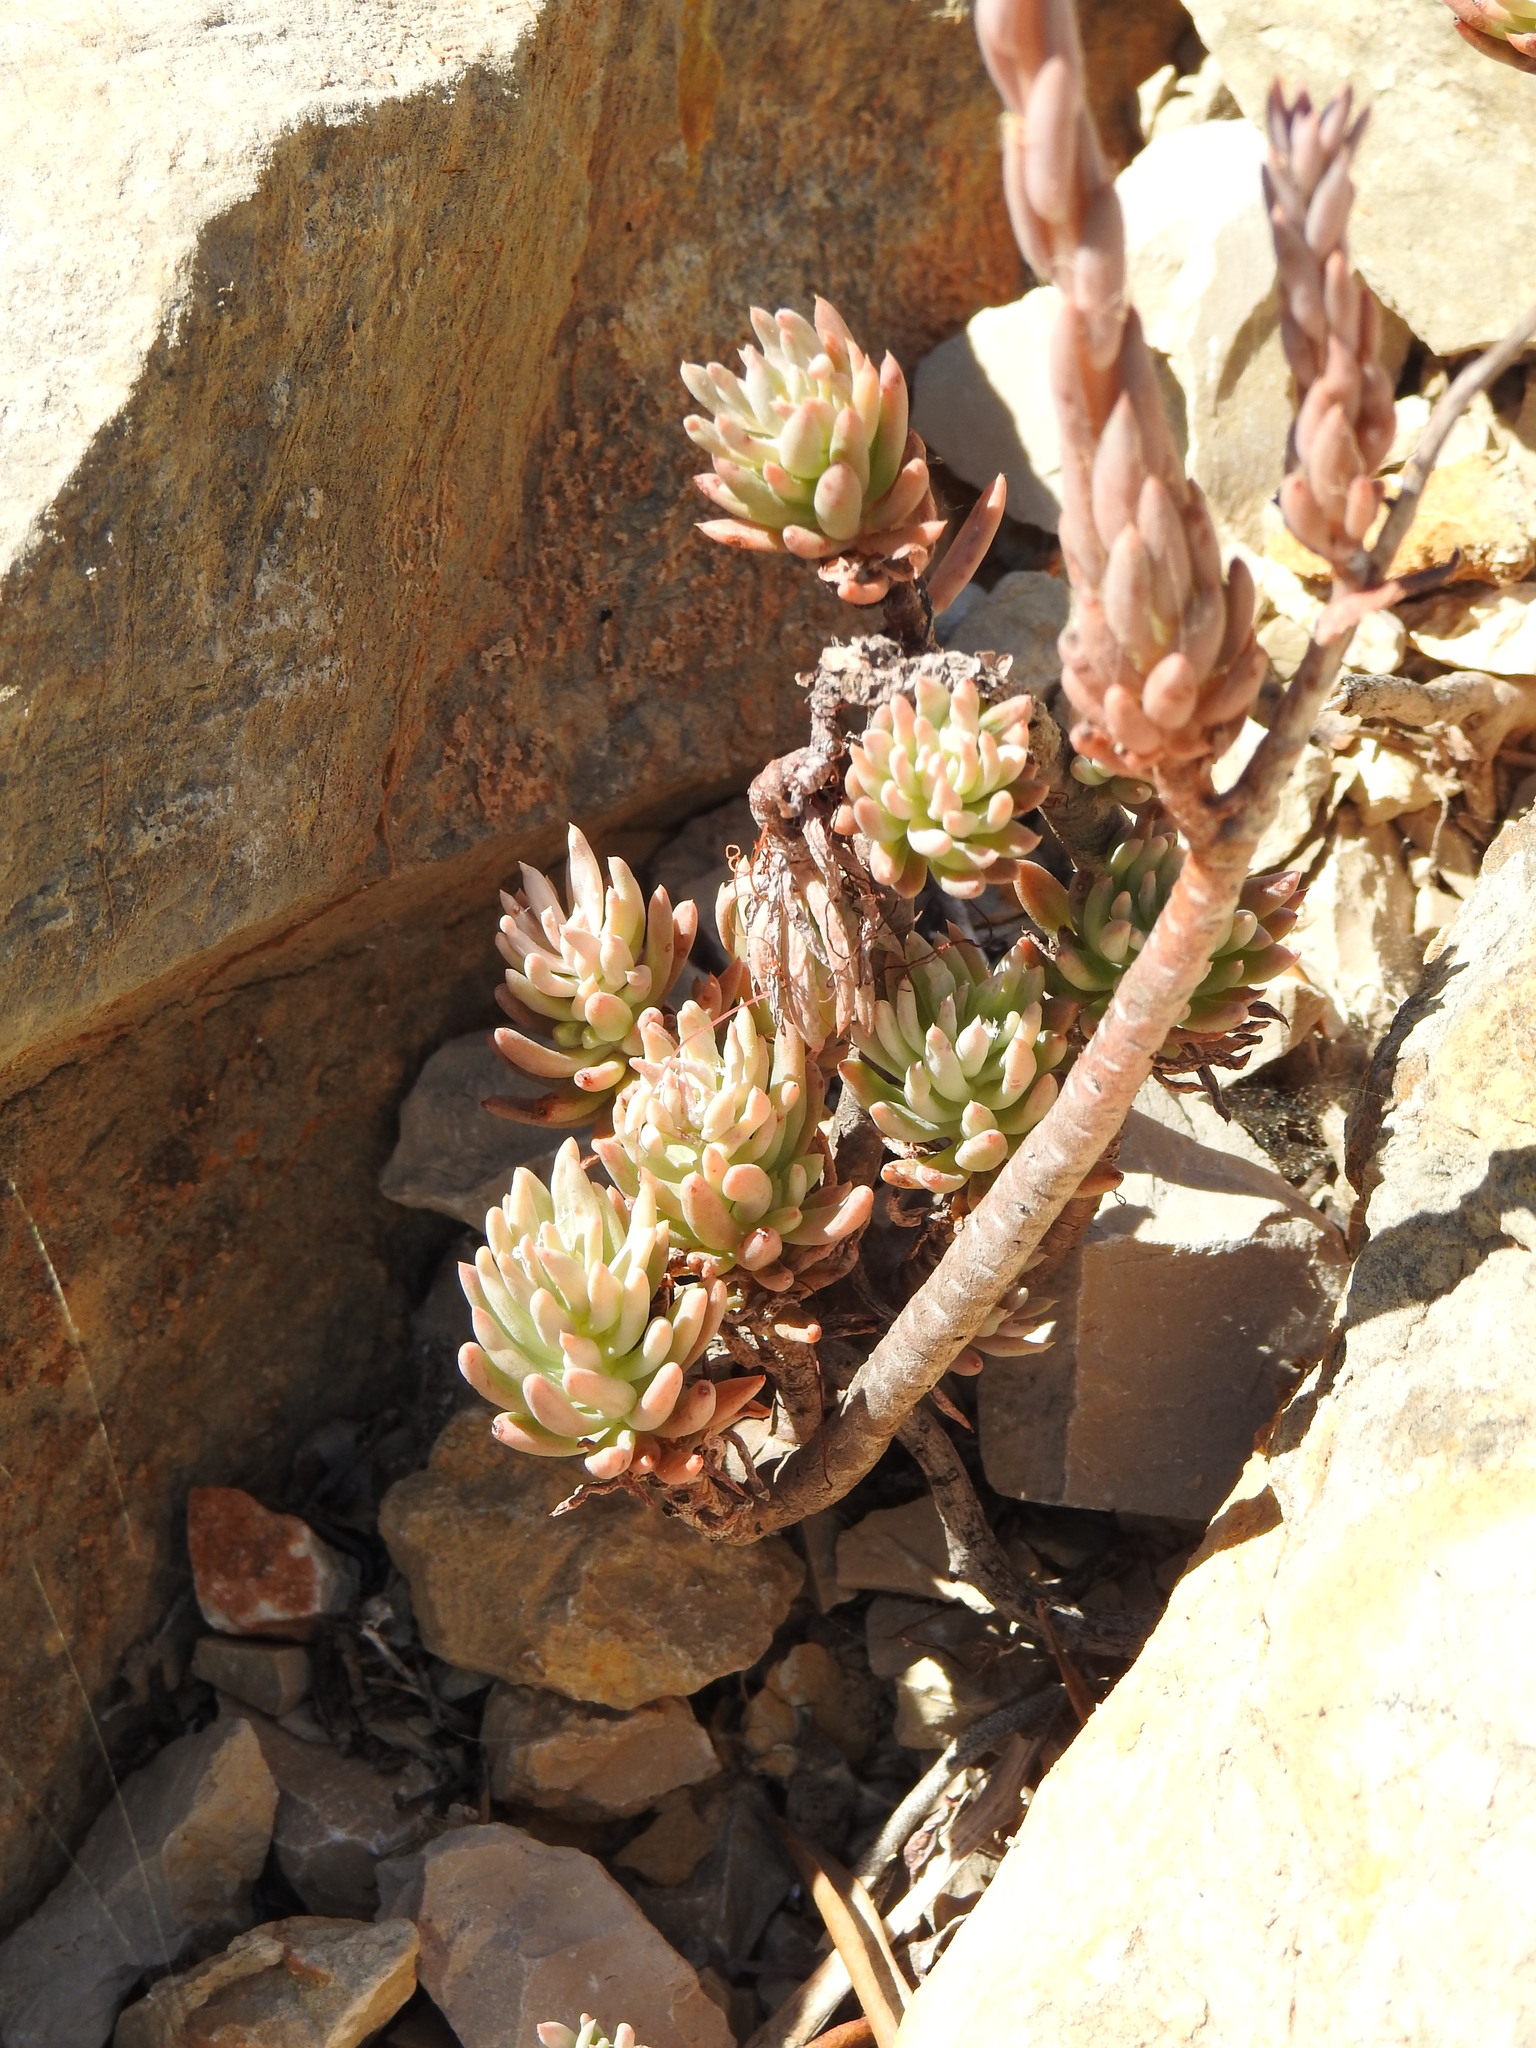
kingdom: Plantae
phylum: Tracheophyta
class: Magnoliopsida
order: Saxifragales
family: Crassulaceae
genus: Petrosedum
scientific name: Petrosedum sediforme
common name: Pale stonecrop
